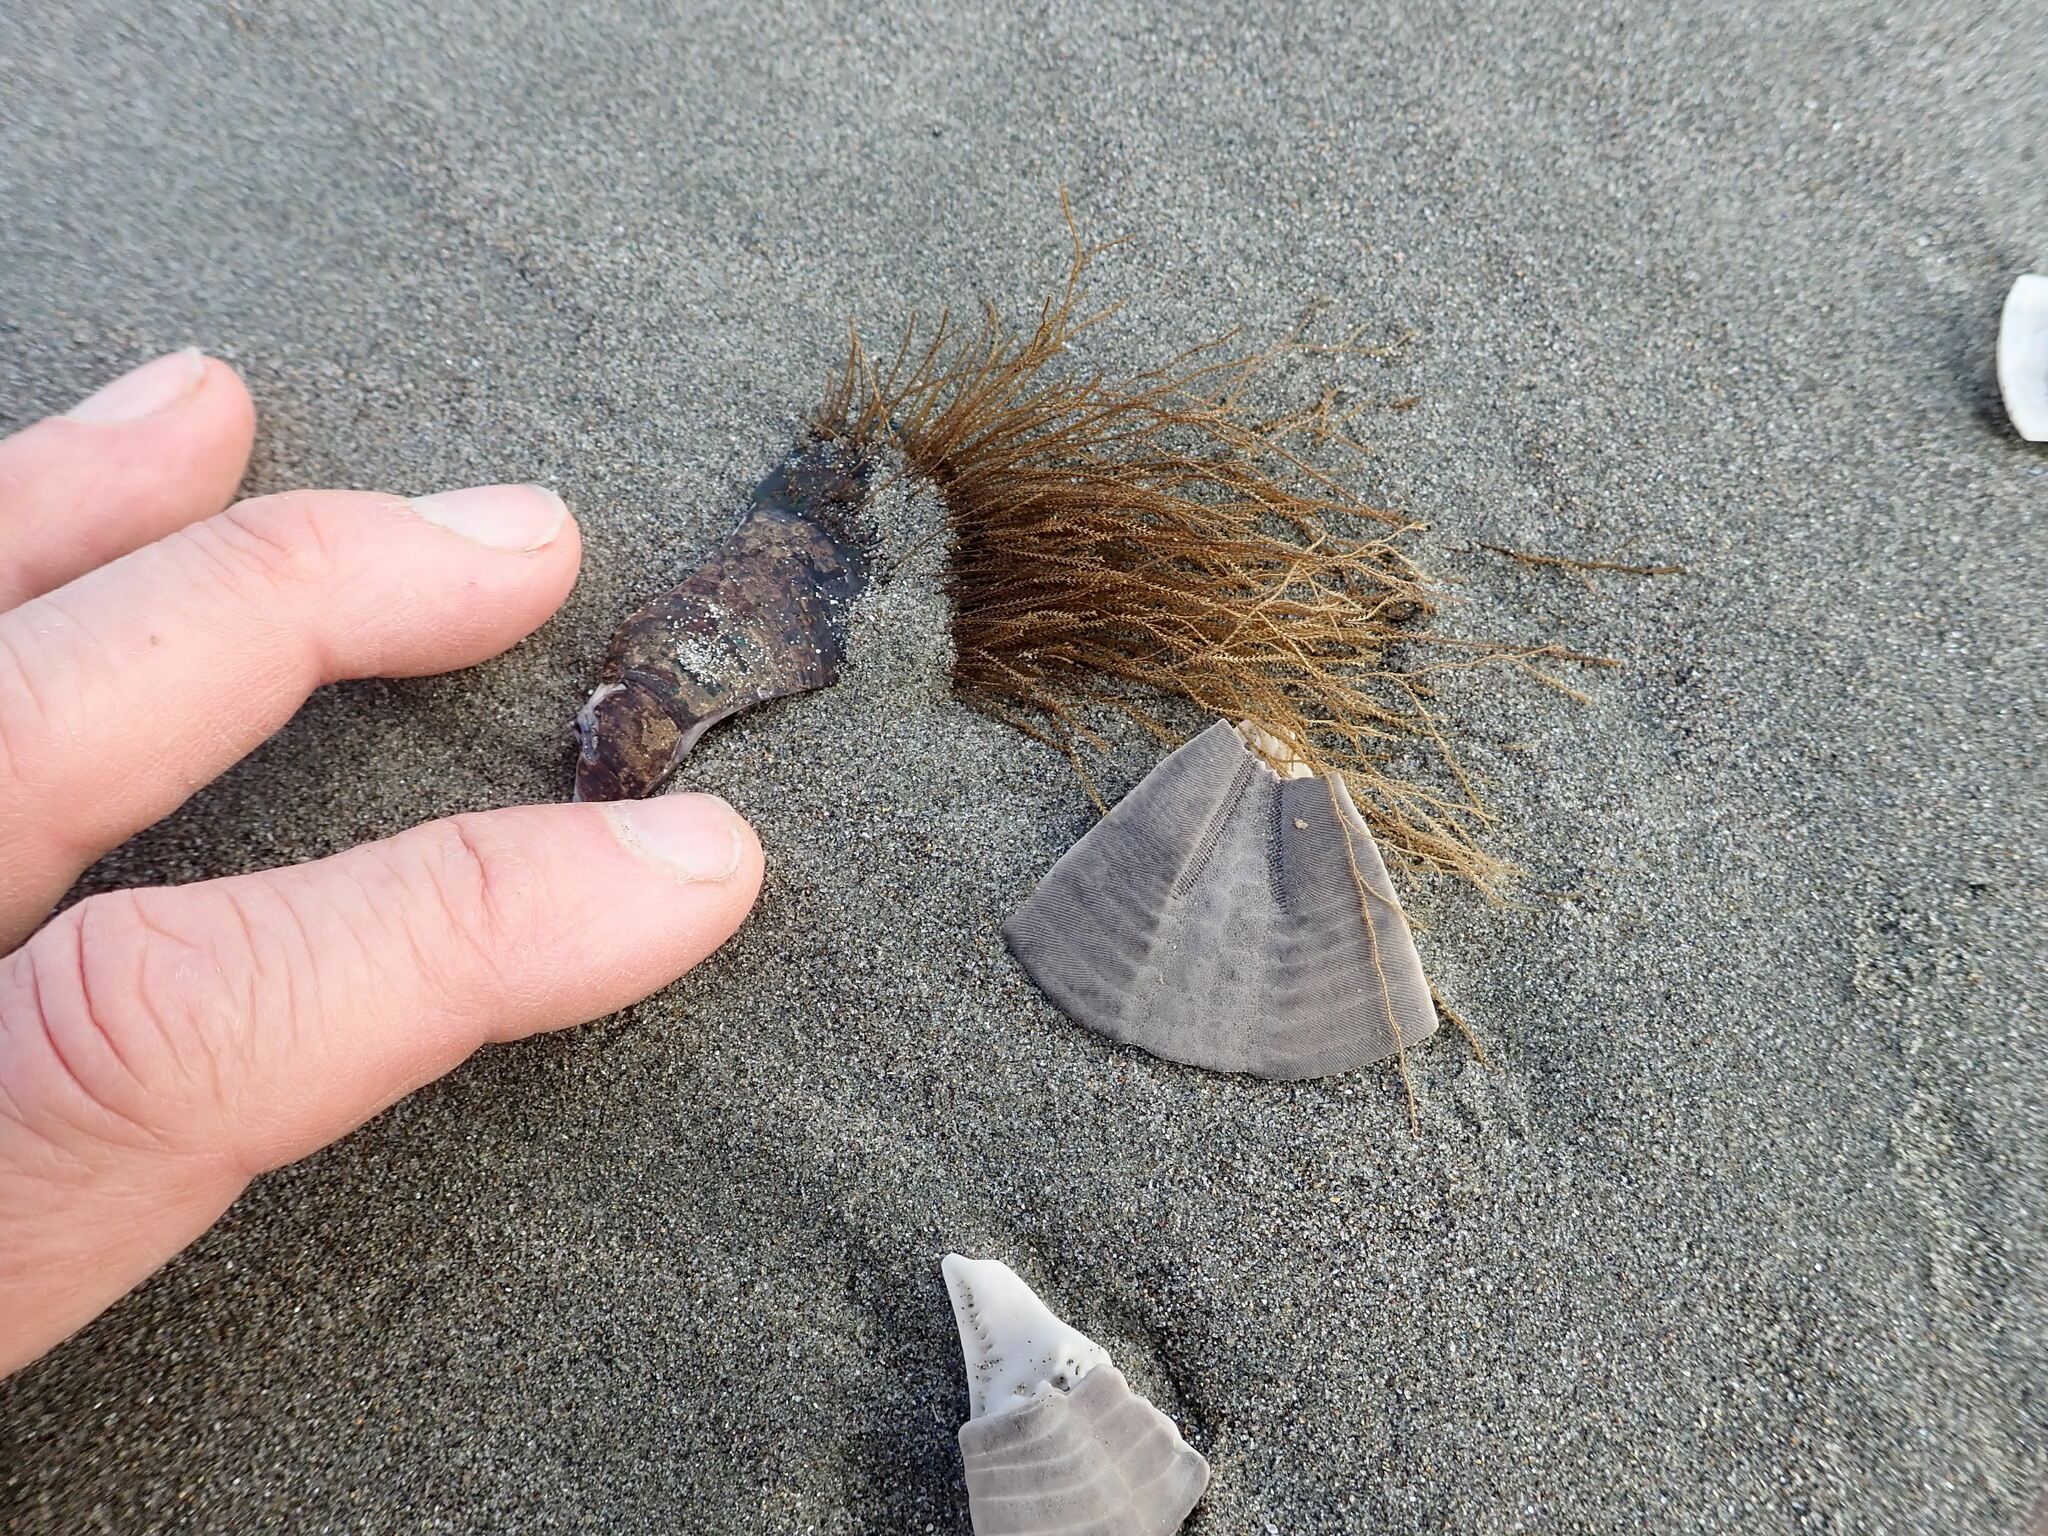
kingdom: Animalia
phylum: Cnidaria
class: Hydrozoa
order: Leptothecata
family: Sertulariidae
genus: Amphisbetia
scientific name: Amphisbetia bispinosa
